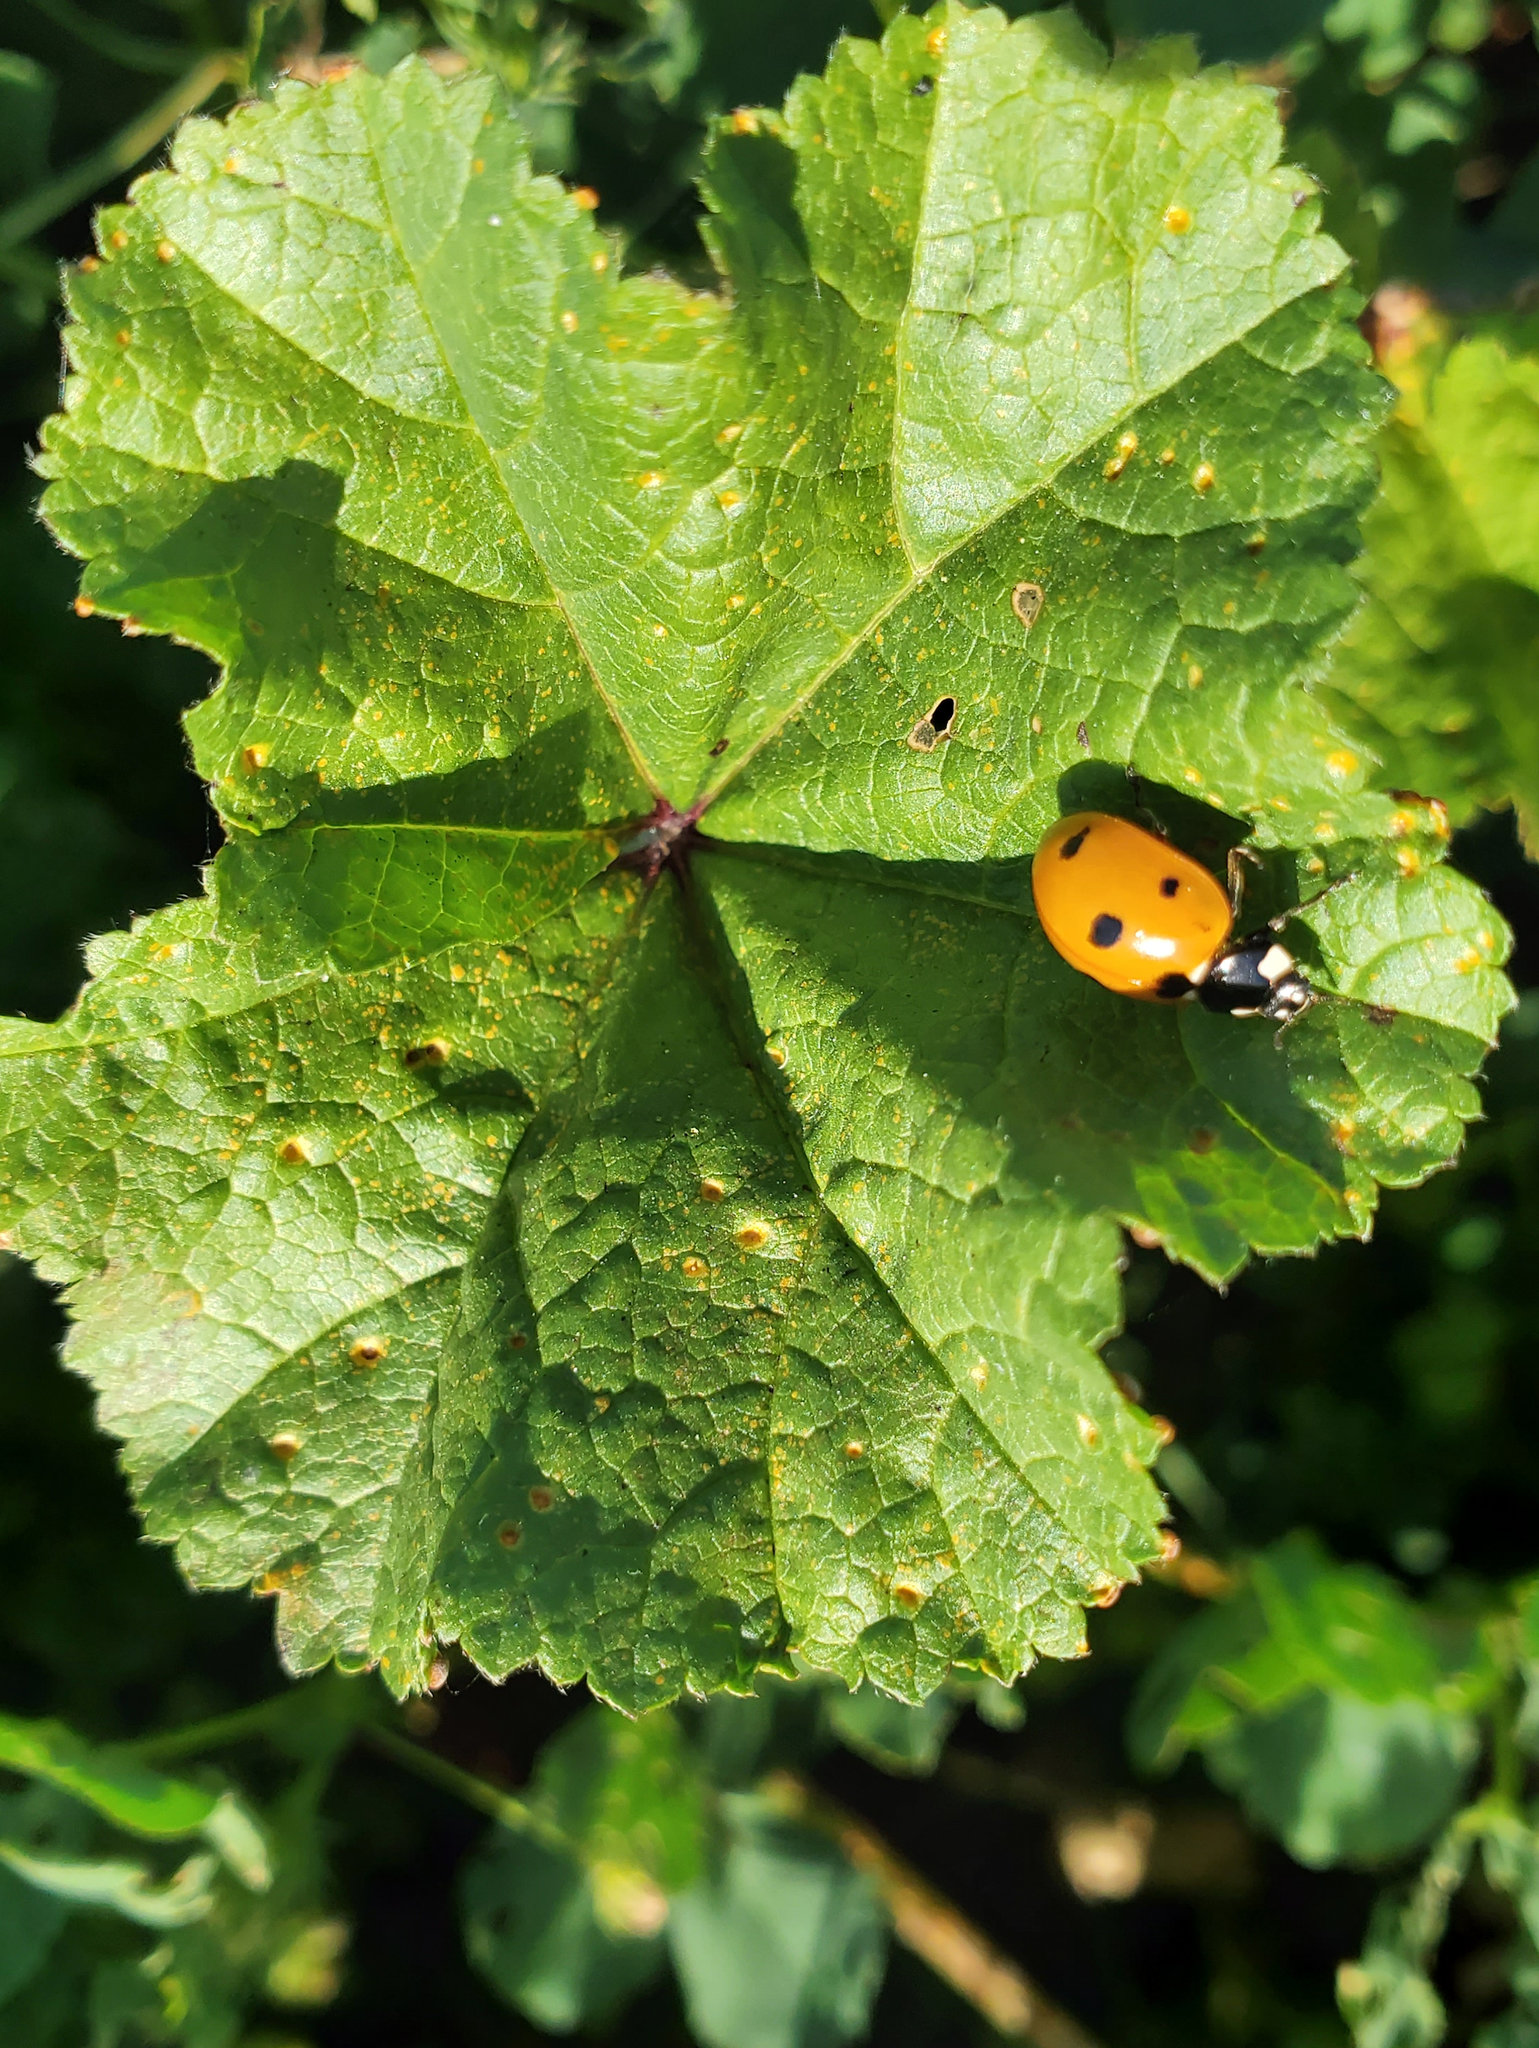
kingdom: Animalia
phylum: Arthropoda
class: Insecta
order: Coleoptera
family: Coccinellidae
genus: Coccinella
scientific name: Coccinella septempunctata
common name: Sevenspotted lady beetle
